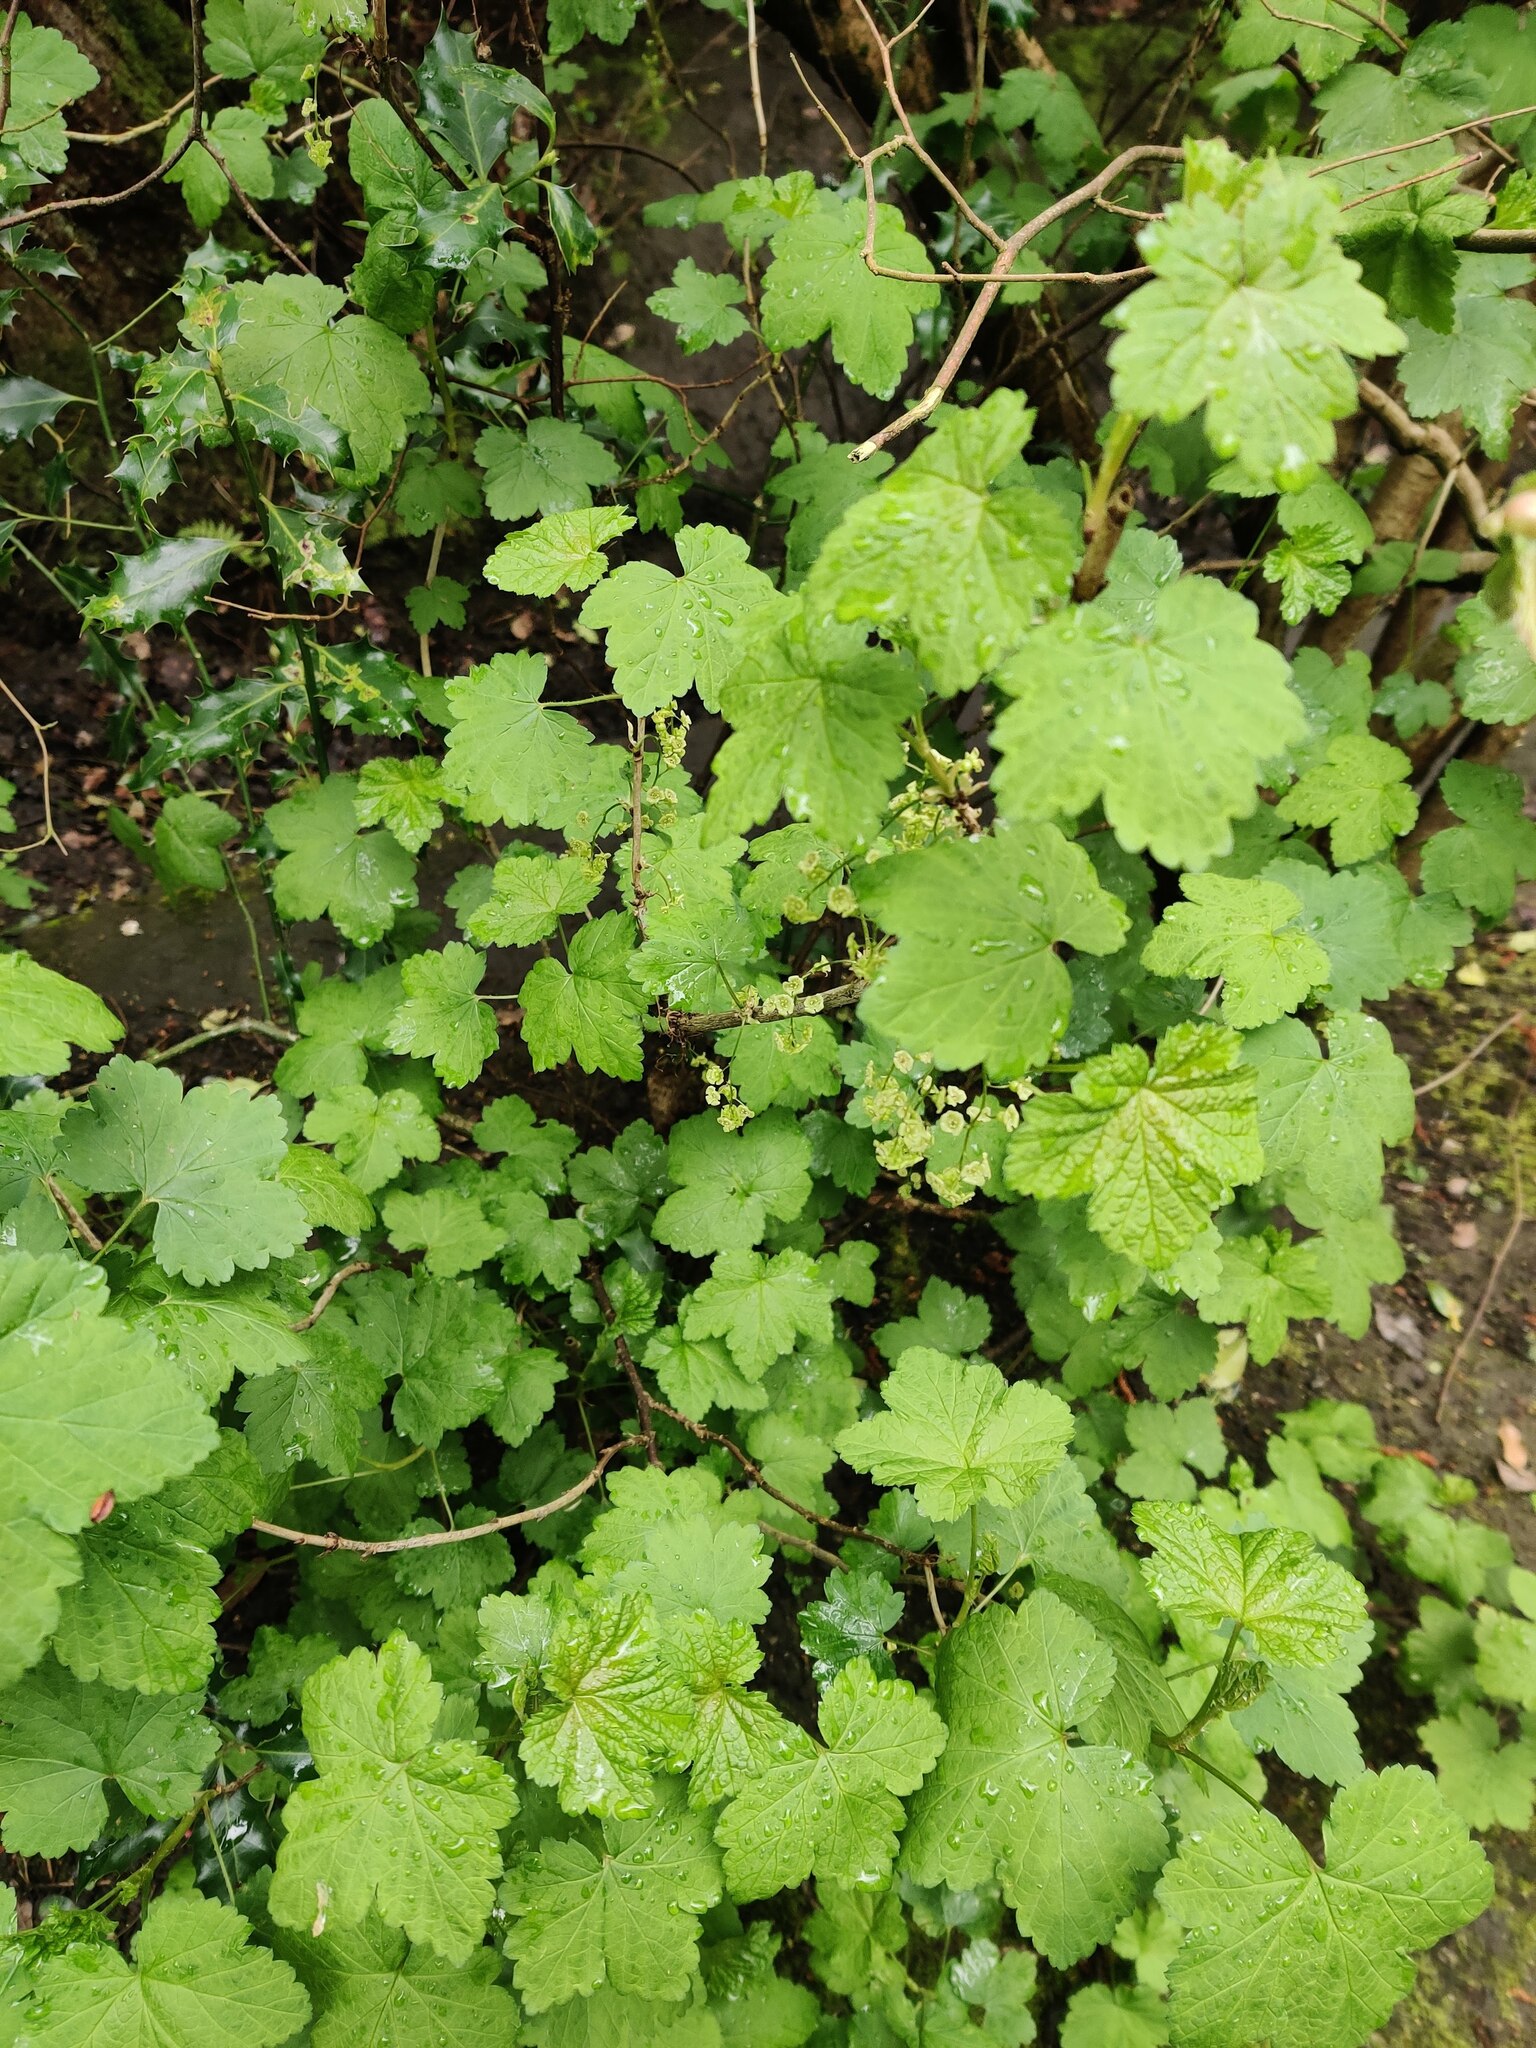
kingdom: Plantae
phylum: Tracheophyta
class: Magnoliopsida
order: Saxifragales
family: Grossulariaceae
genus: Ribes
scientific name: Ribes rubrum
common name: Red currant
